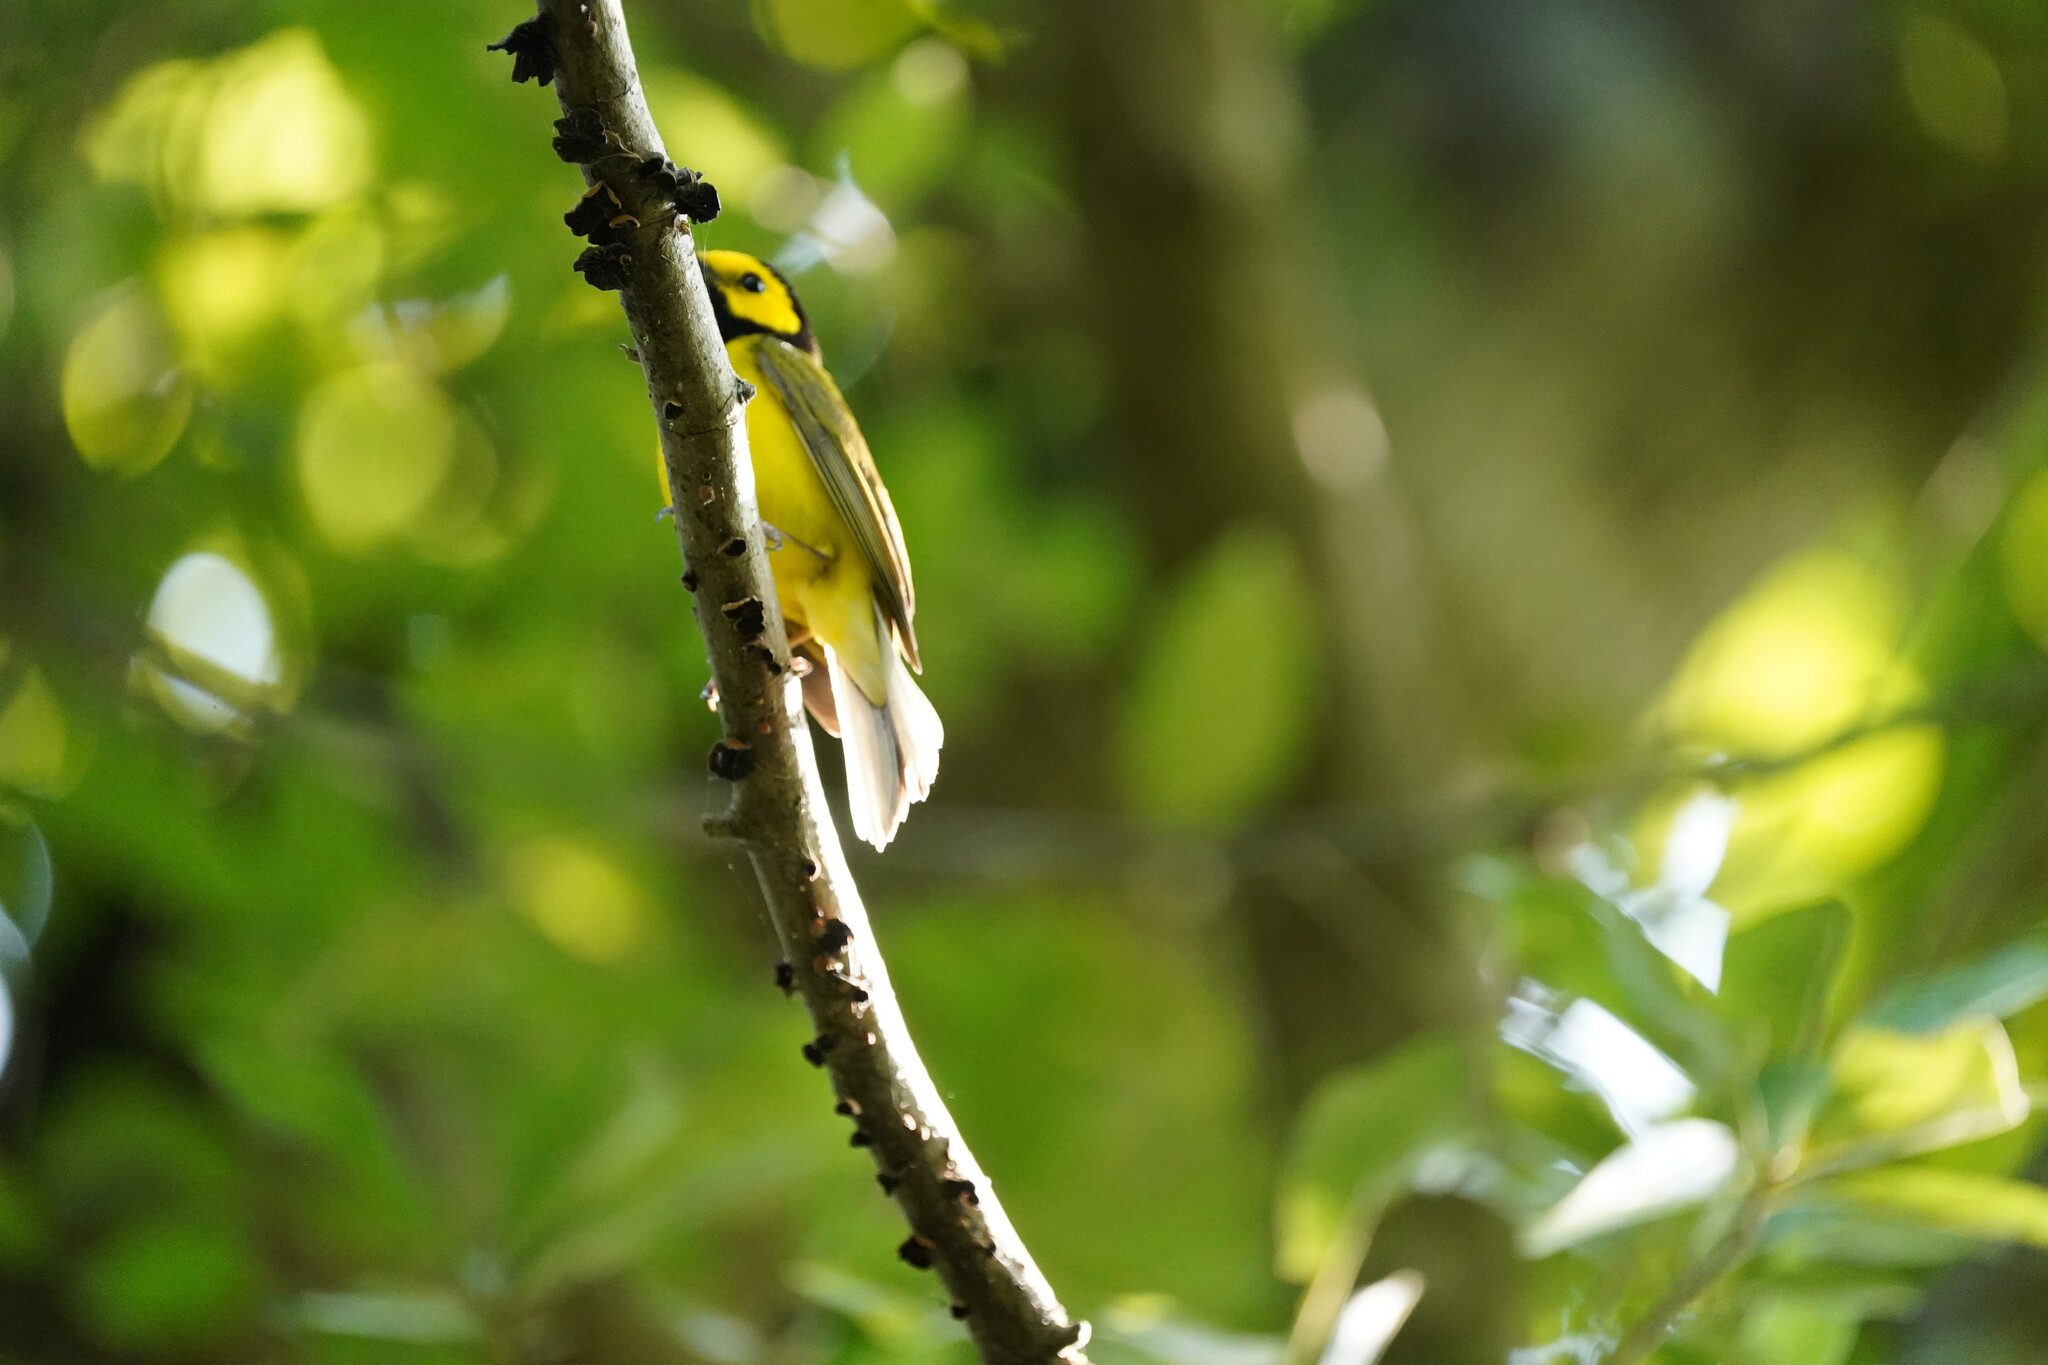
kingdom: Animalia
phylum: Chordata
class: Aves
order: Passeriformes
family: Parulidae
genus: Setophaga
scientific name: Setophaga citrina
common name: Hooded warbler
